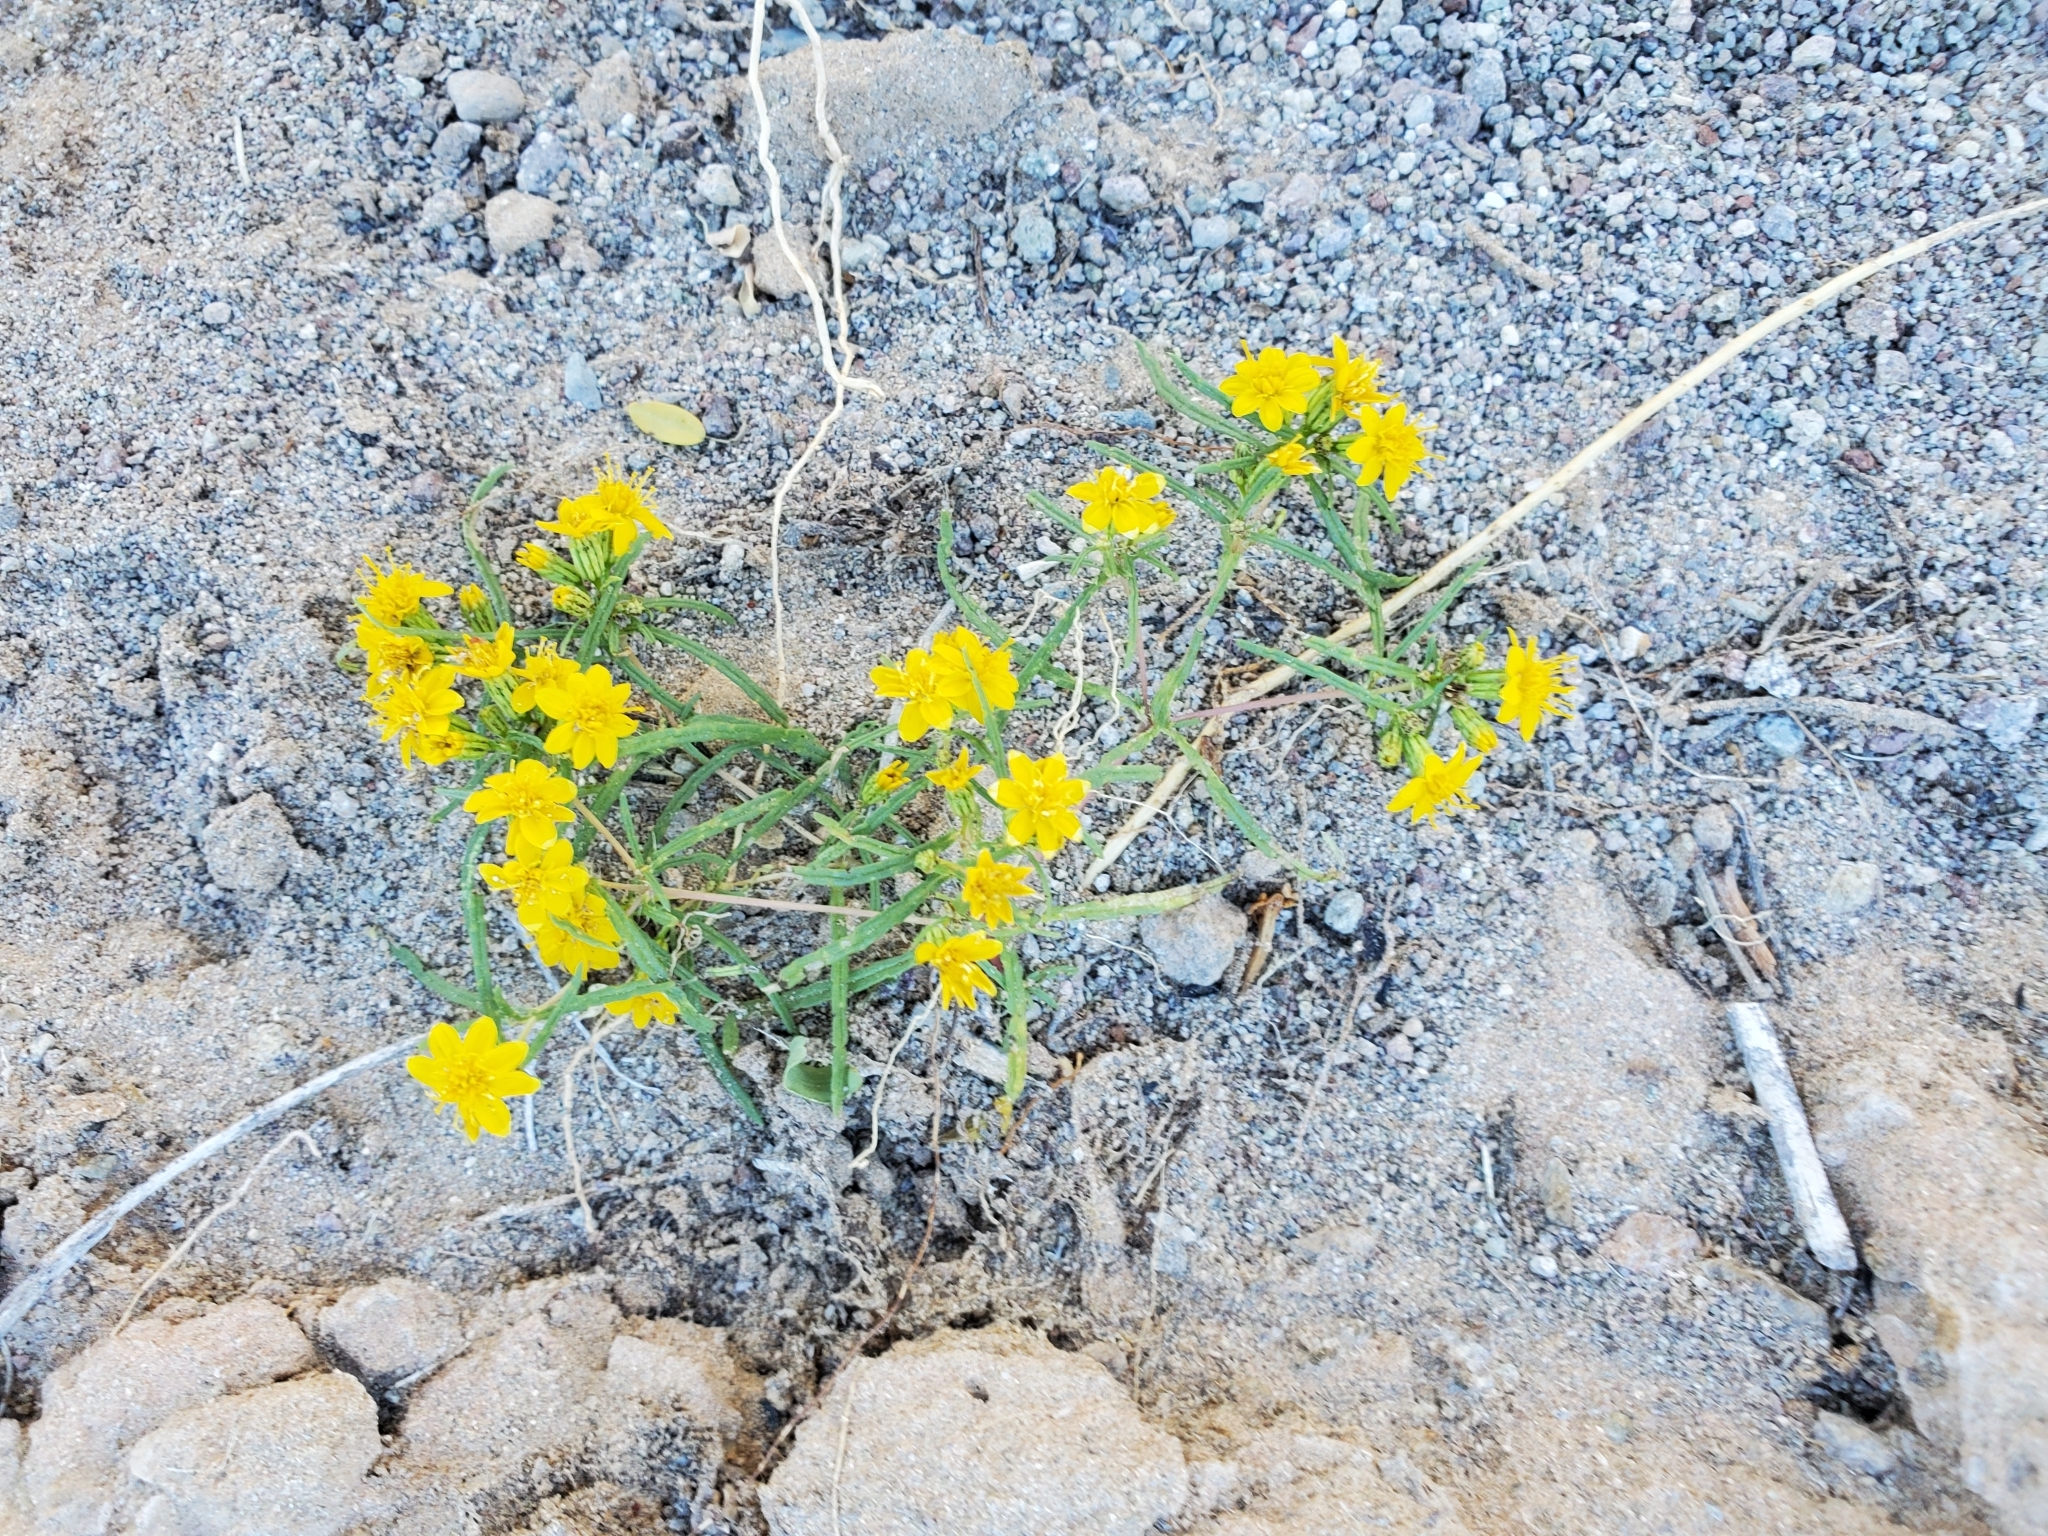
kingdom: Plantae
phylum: Tracheophyta
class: Magnoliopsida
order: Asterales
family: Asteraceae
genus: Pectis
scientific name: Pectis papposa
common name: Many-bristle chinchweed
